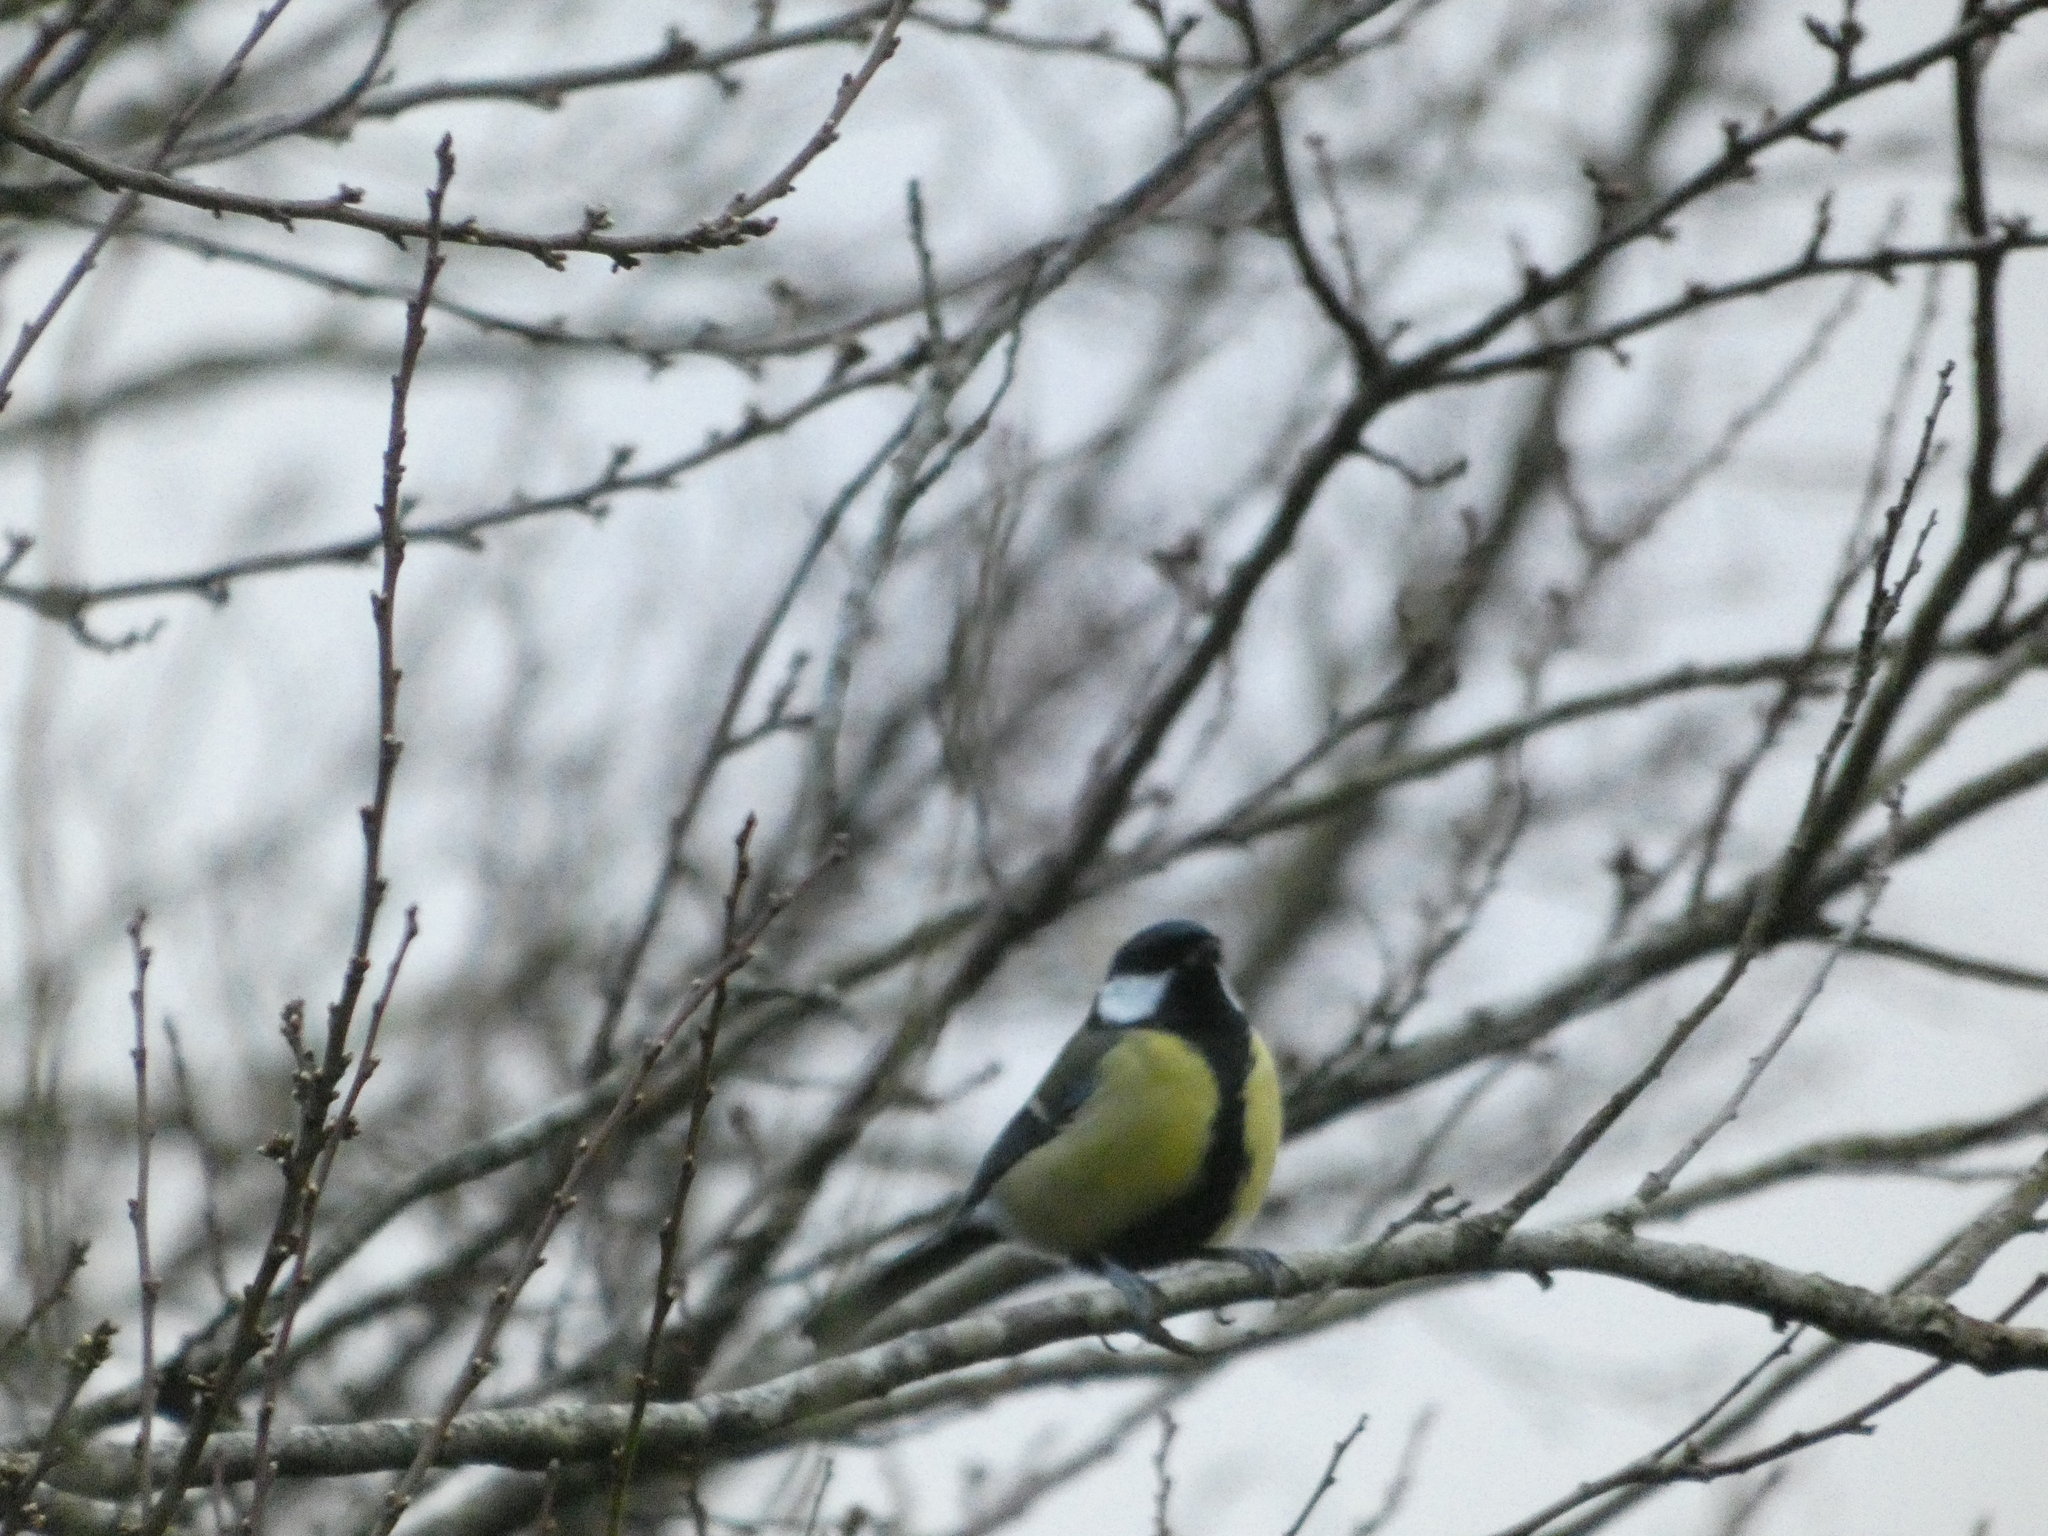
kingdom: Animalia
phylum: Chordata
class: Aves
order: Passeriformes
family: Paridae
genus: Parus
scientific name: Parus major
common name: Great tit
